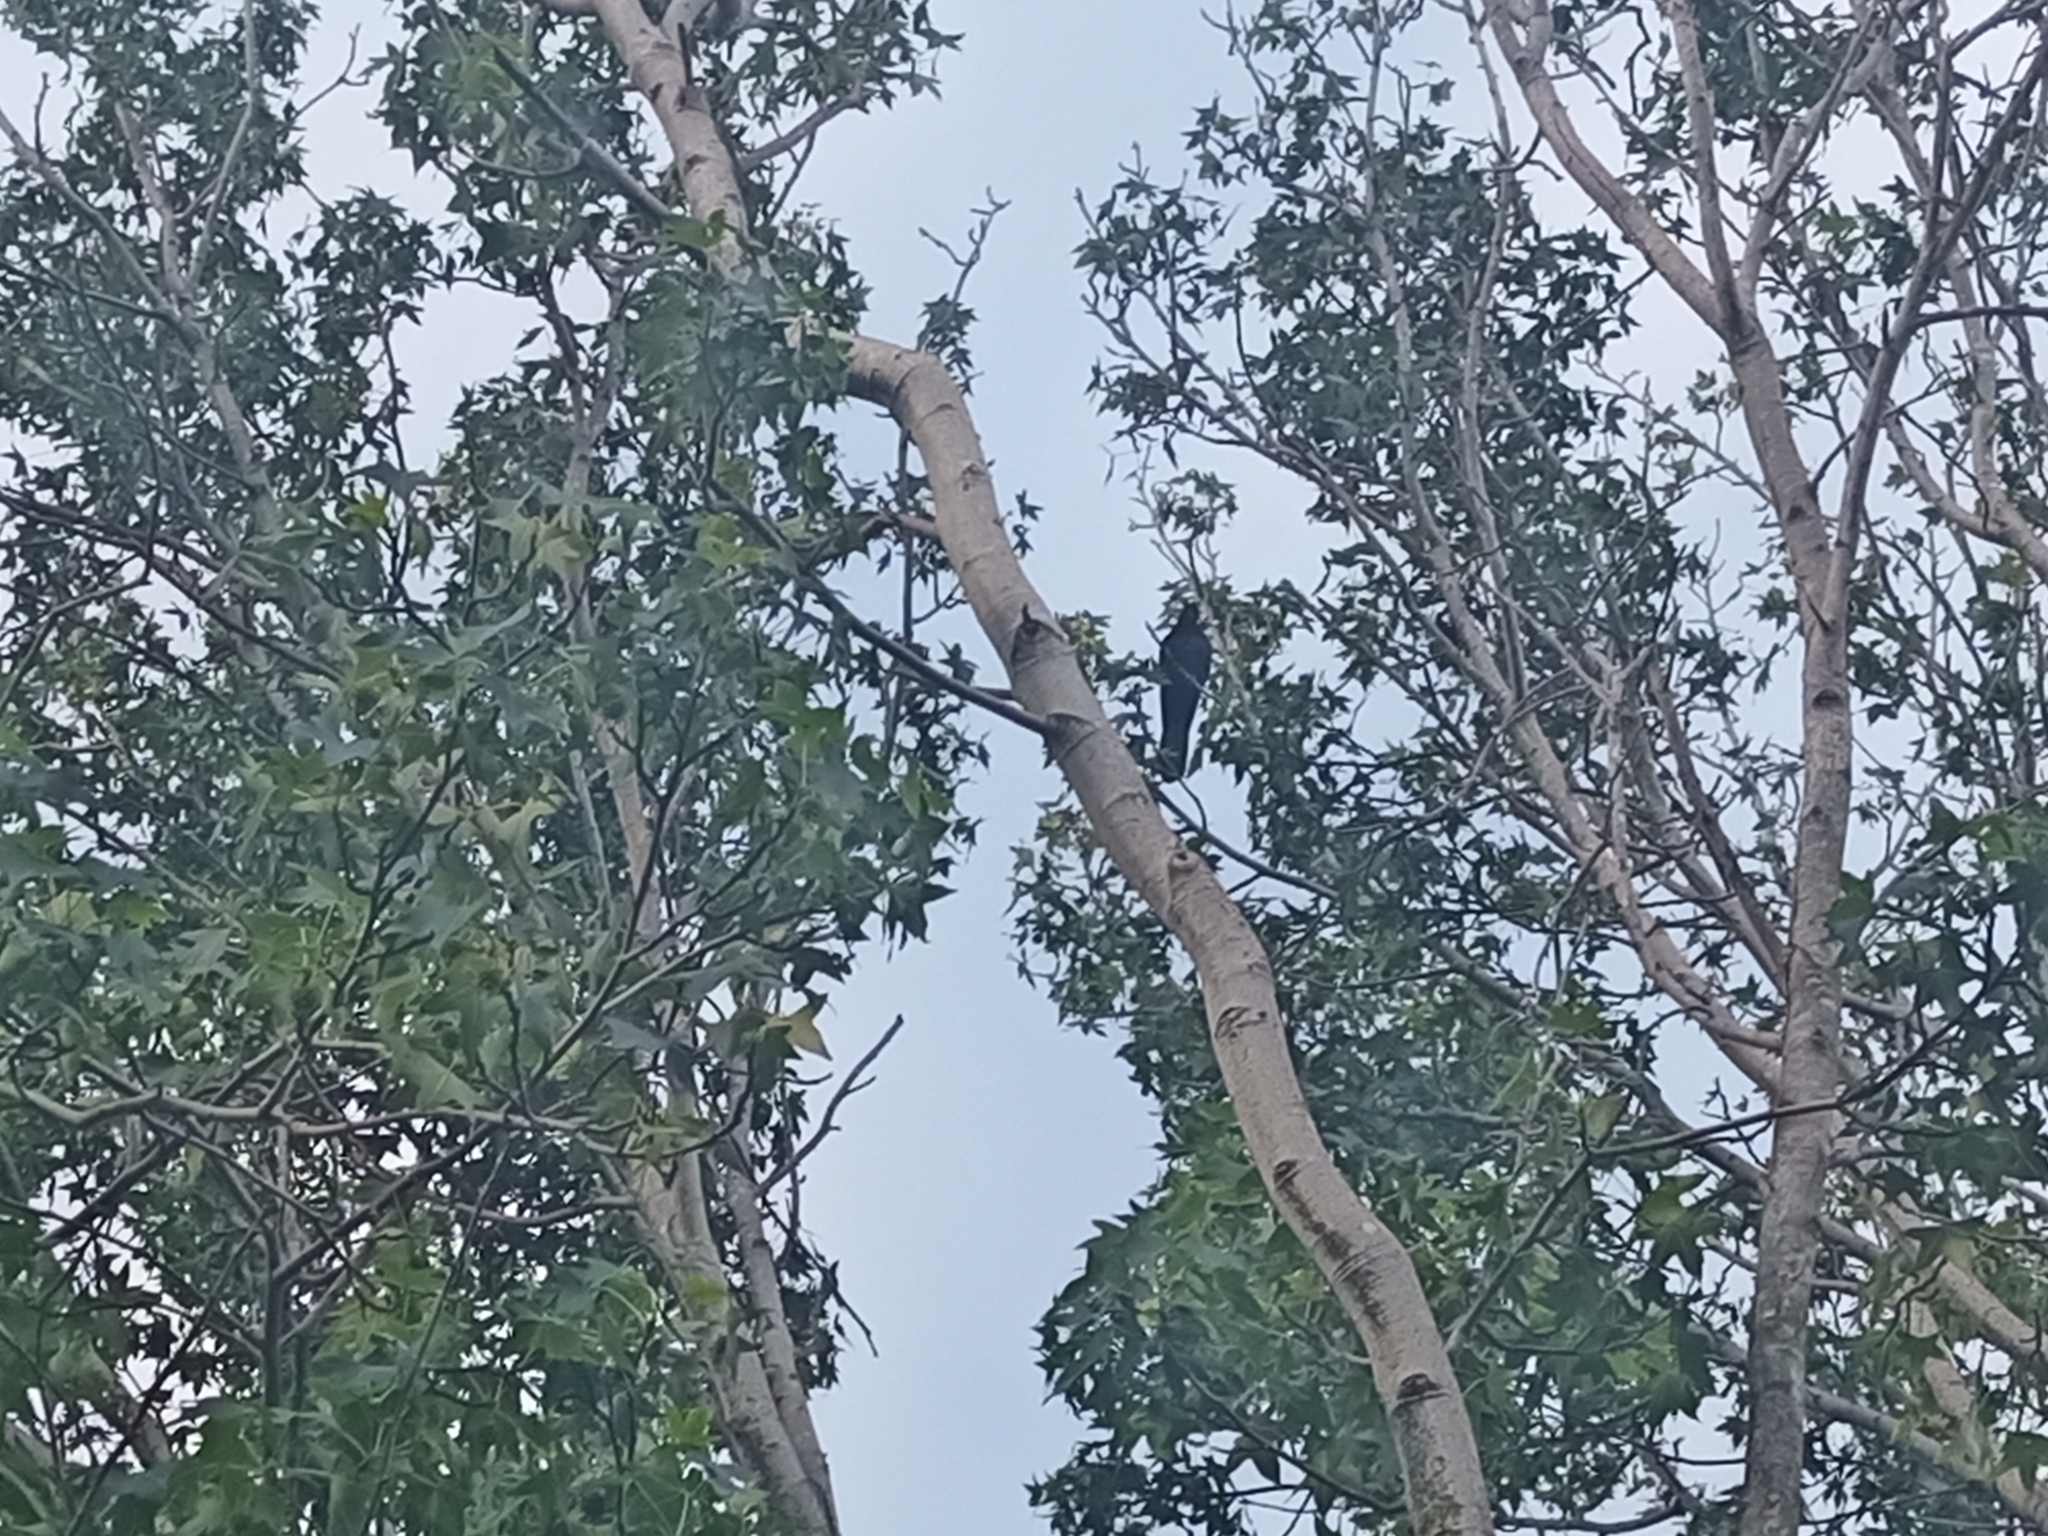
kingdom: Animalia
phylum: Chordata
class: Aves
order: Cuculiformes
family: Cuculidae
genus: Eudynamys
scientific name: Eudynamys scolopaceus
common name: Asian koel
